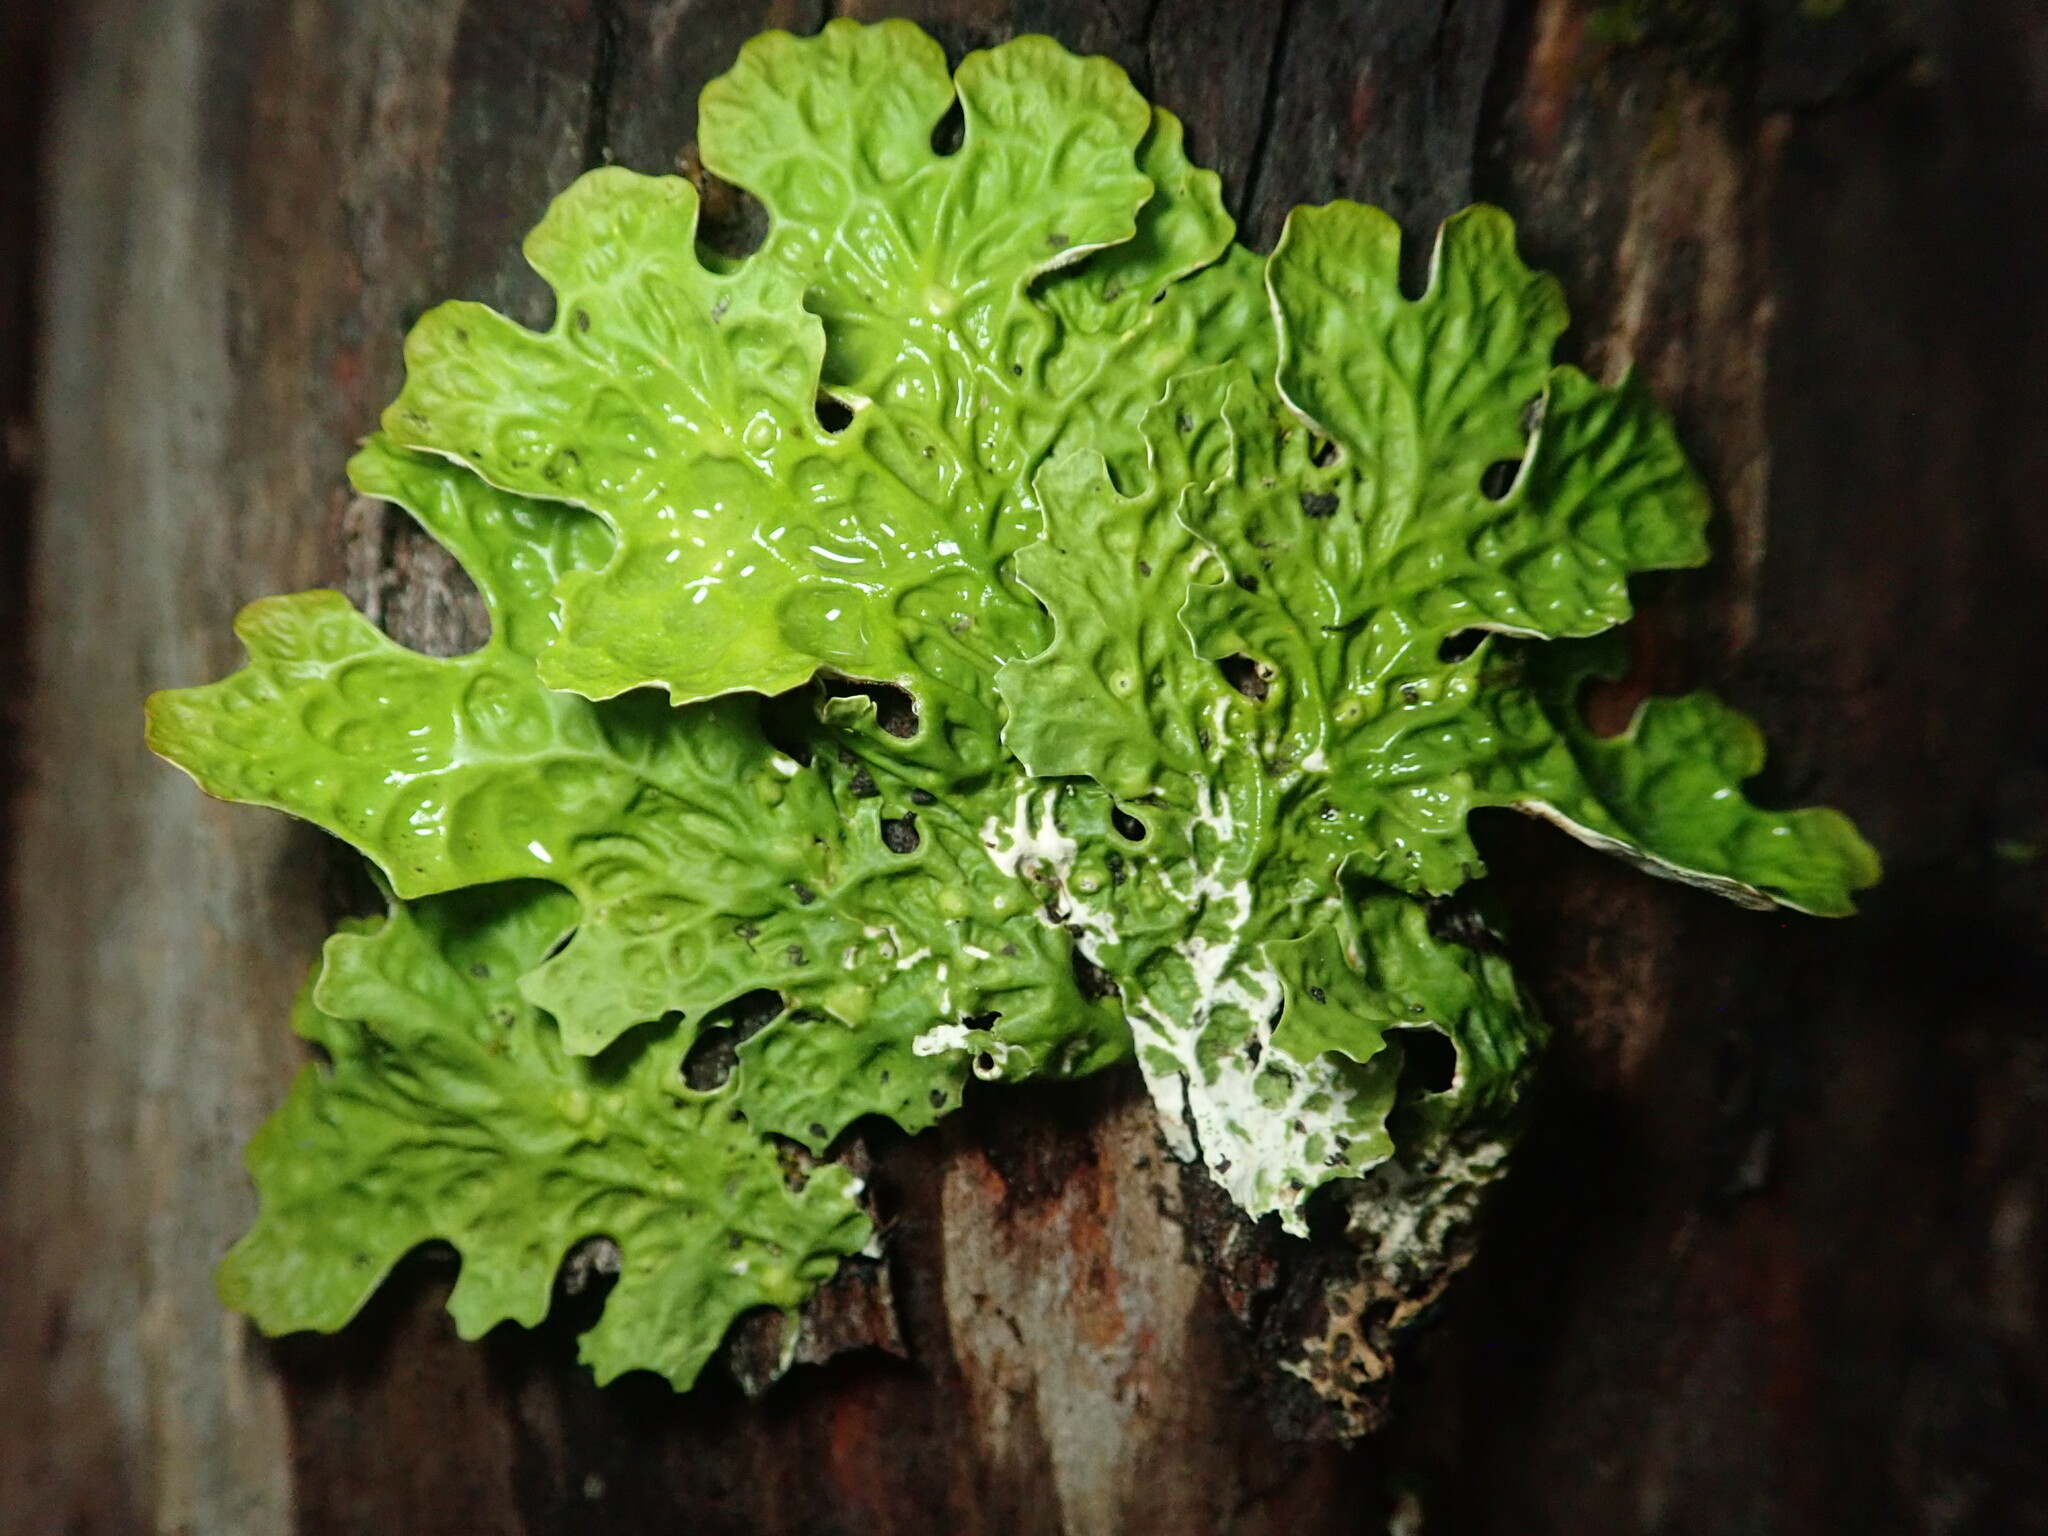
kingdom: Fungi
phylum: Ascomycota
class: Lecanoromycetes
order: Peltigerales
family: Lobariaceae
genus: Lobaria
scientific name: Lobaria pulmonaria
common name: Lungwort
